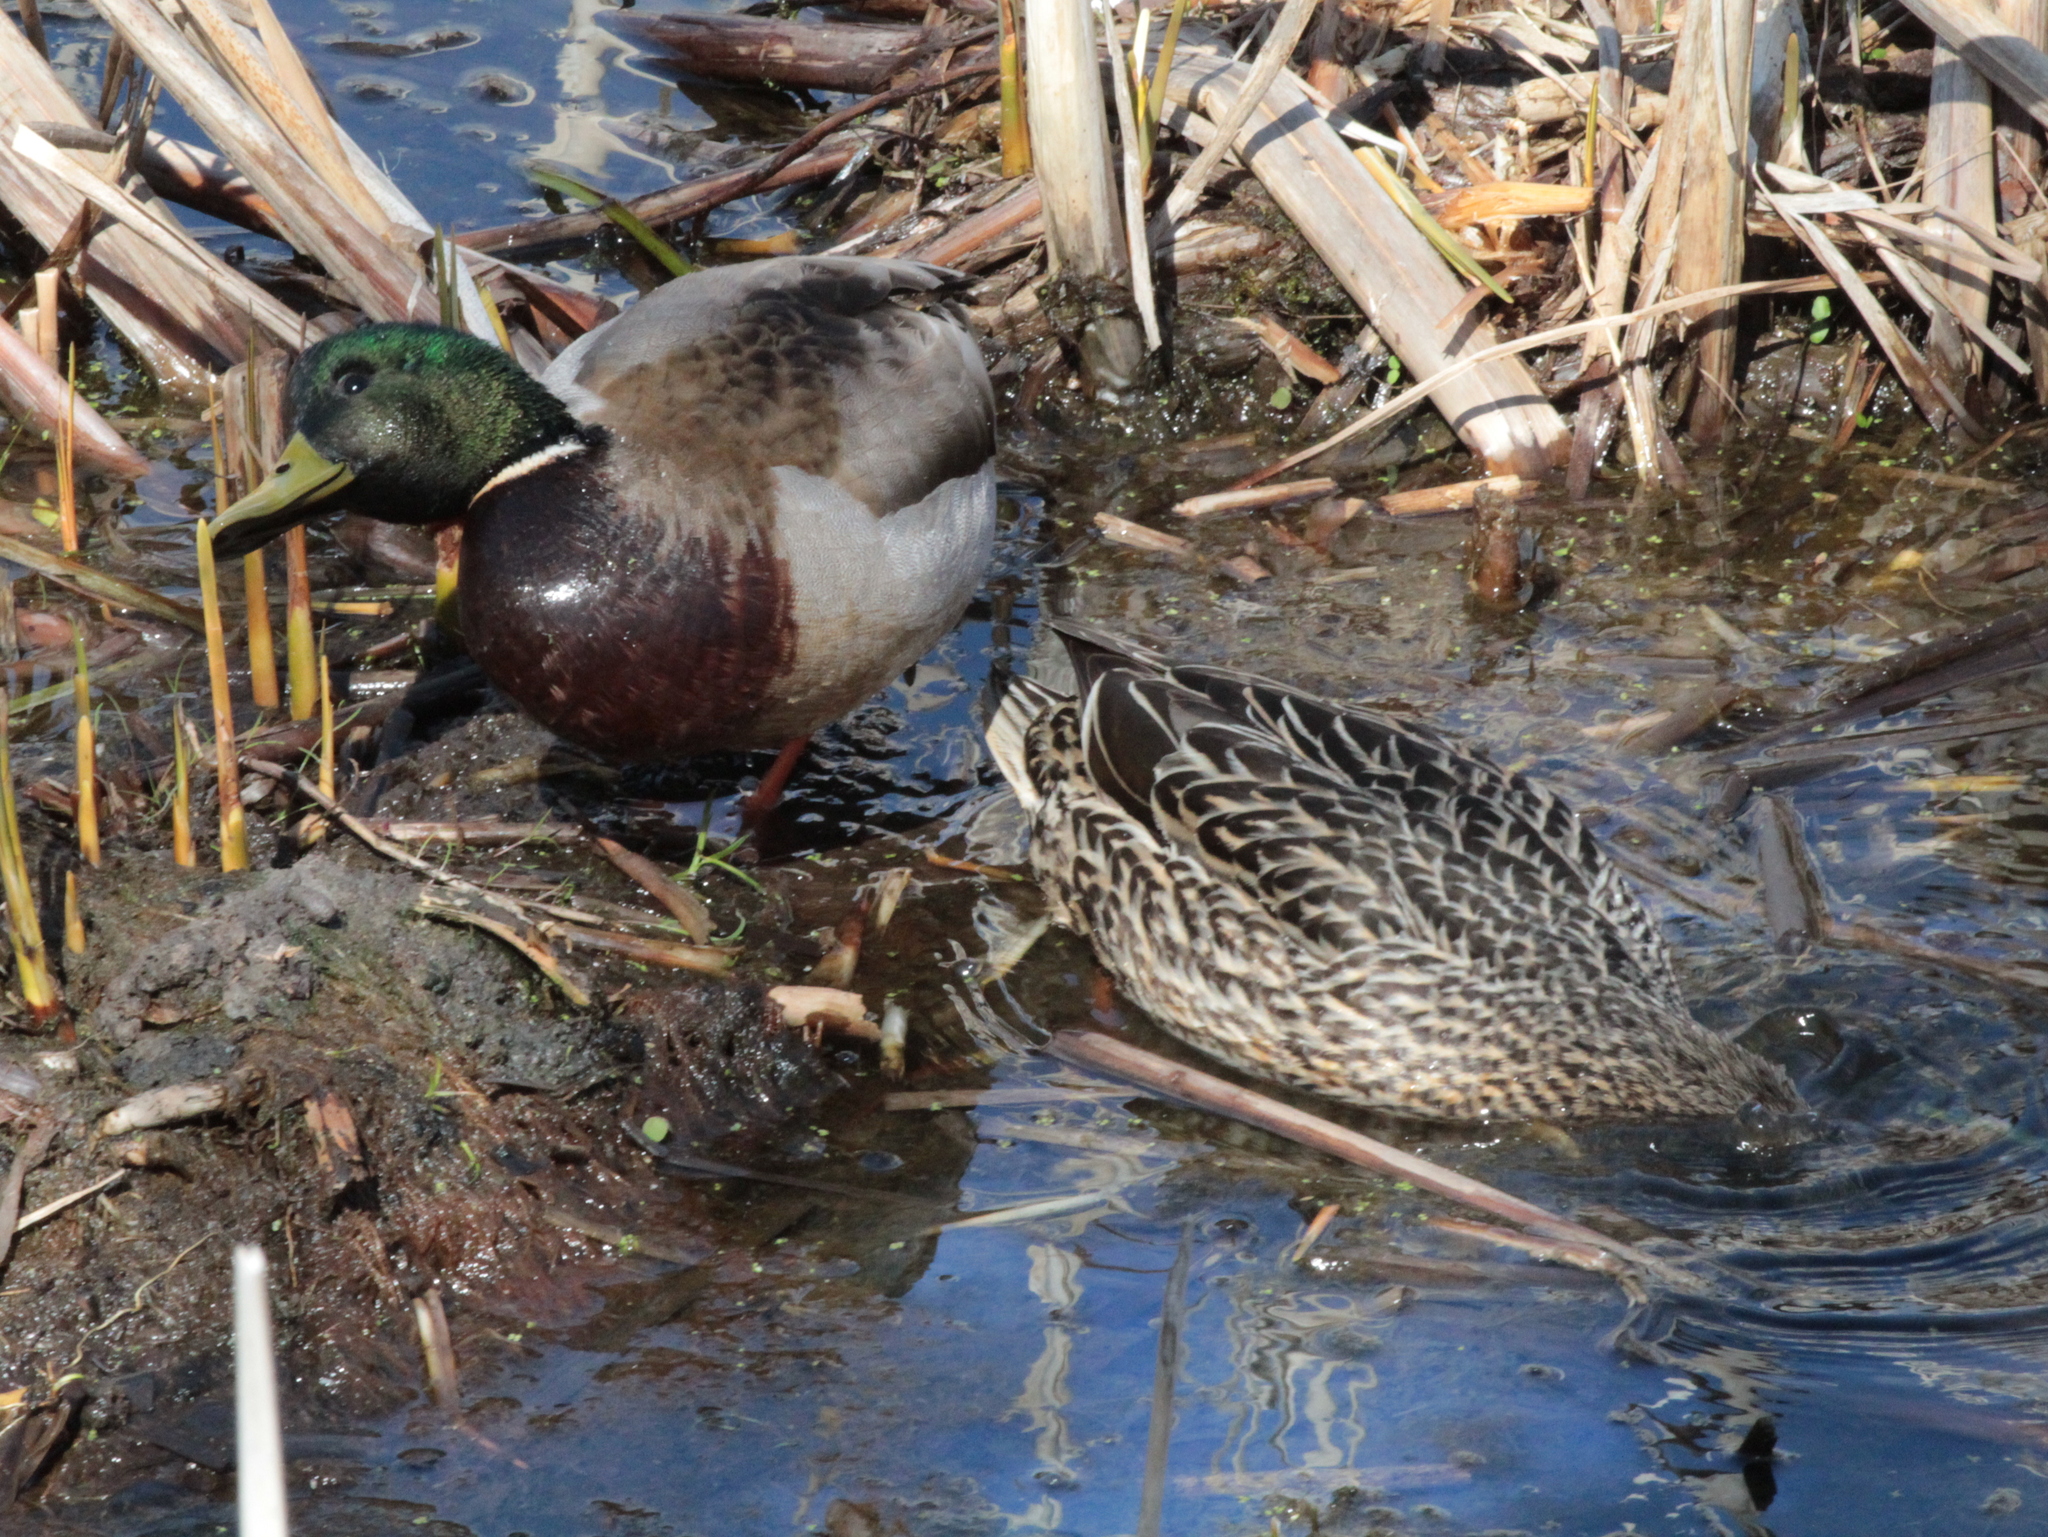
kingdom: Animalia
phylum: Chordata
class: Aves
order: Anseriformes
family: Anatidae
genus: Anas
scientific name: Anas platyrhynchos
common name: Mallard
